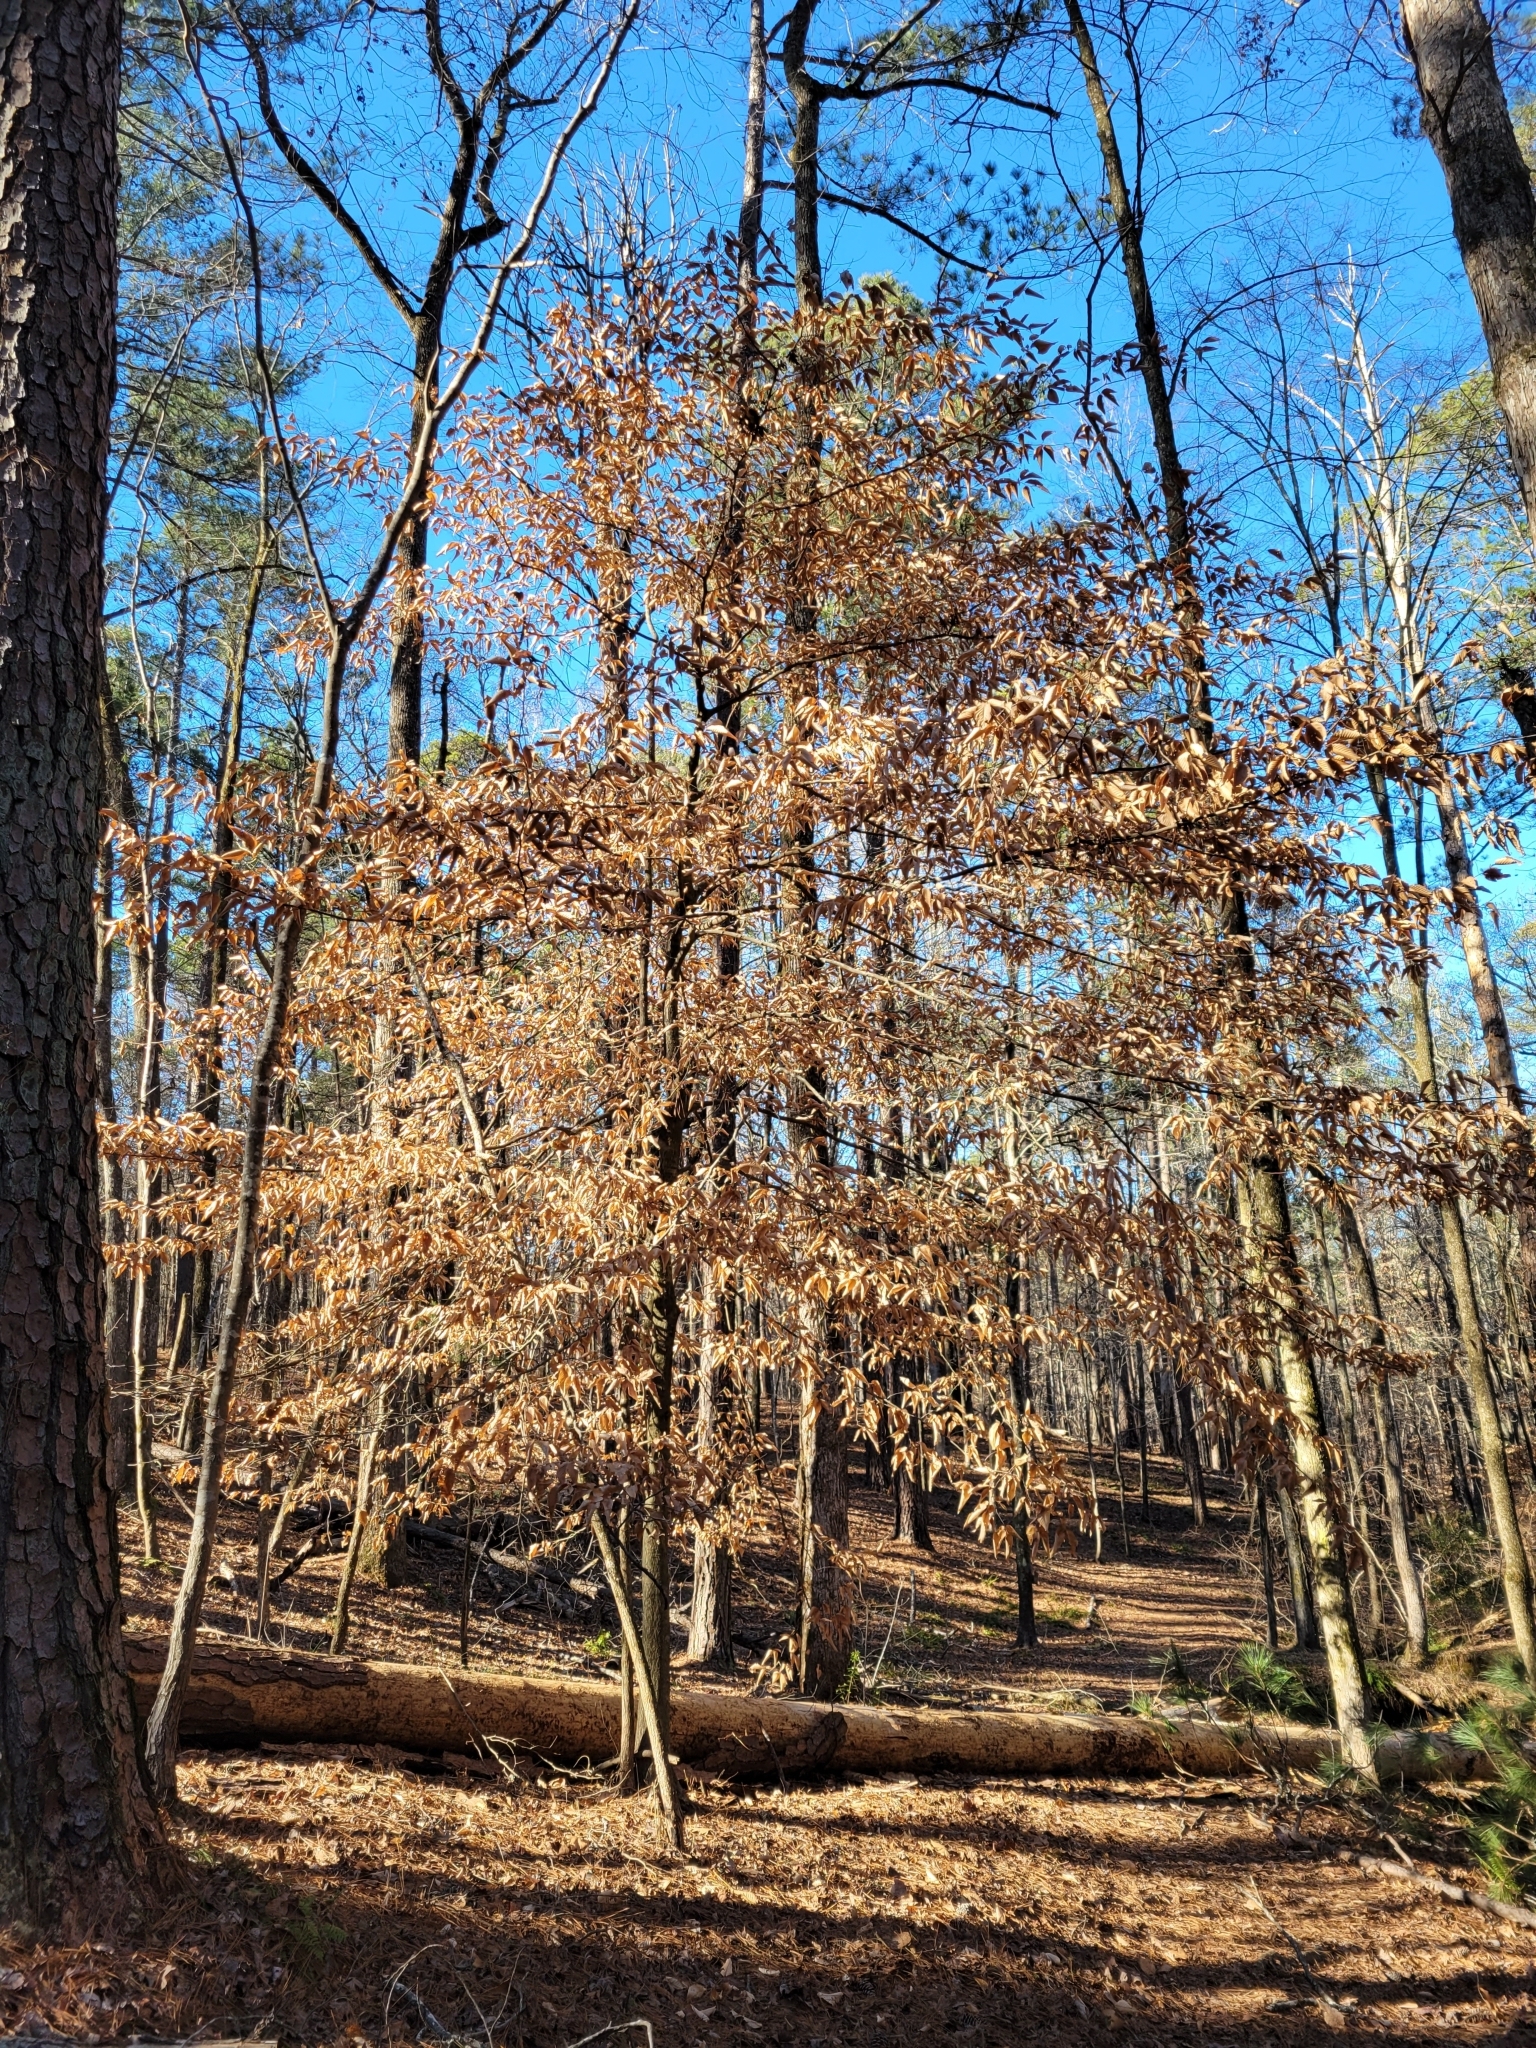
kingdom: Plantae
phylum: Tracheophyta
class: Magnoliopsida
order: Fagales
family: Fagaceae
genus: Fagus
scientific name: Fagus grandifolia
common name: American beech
